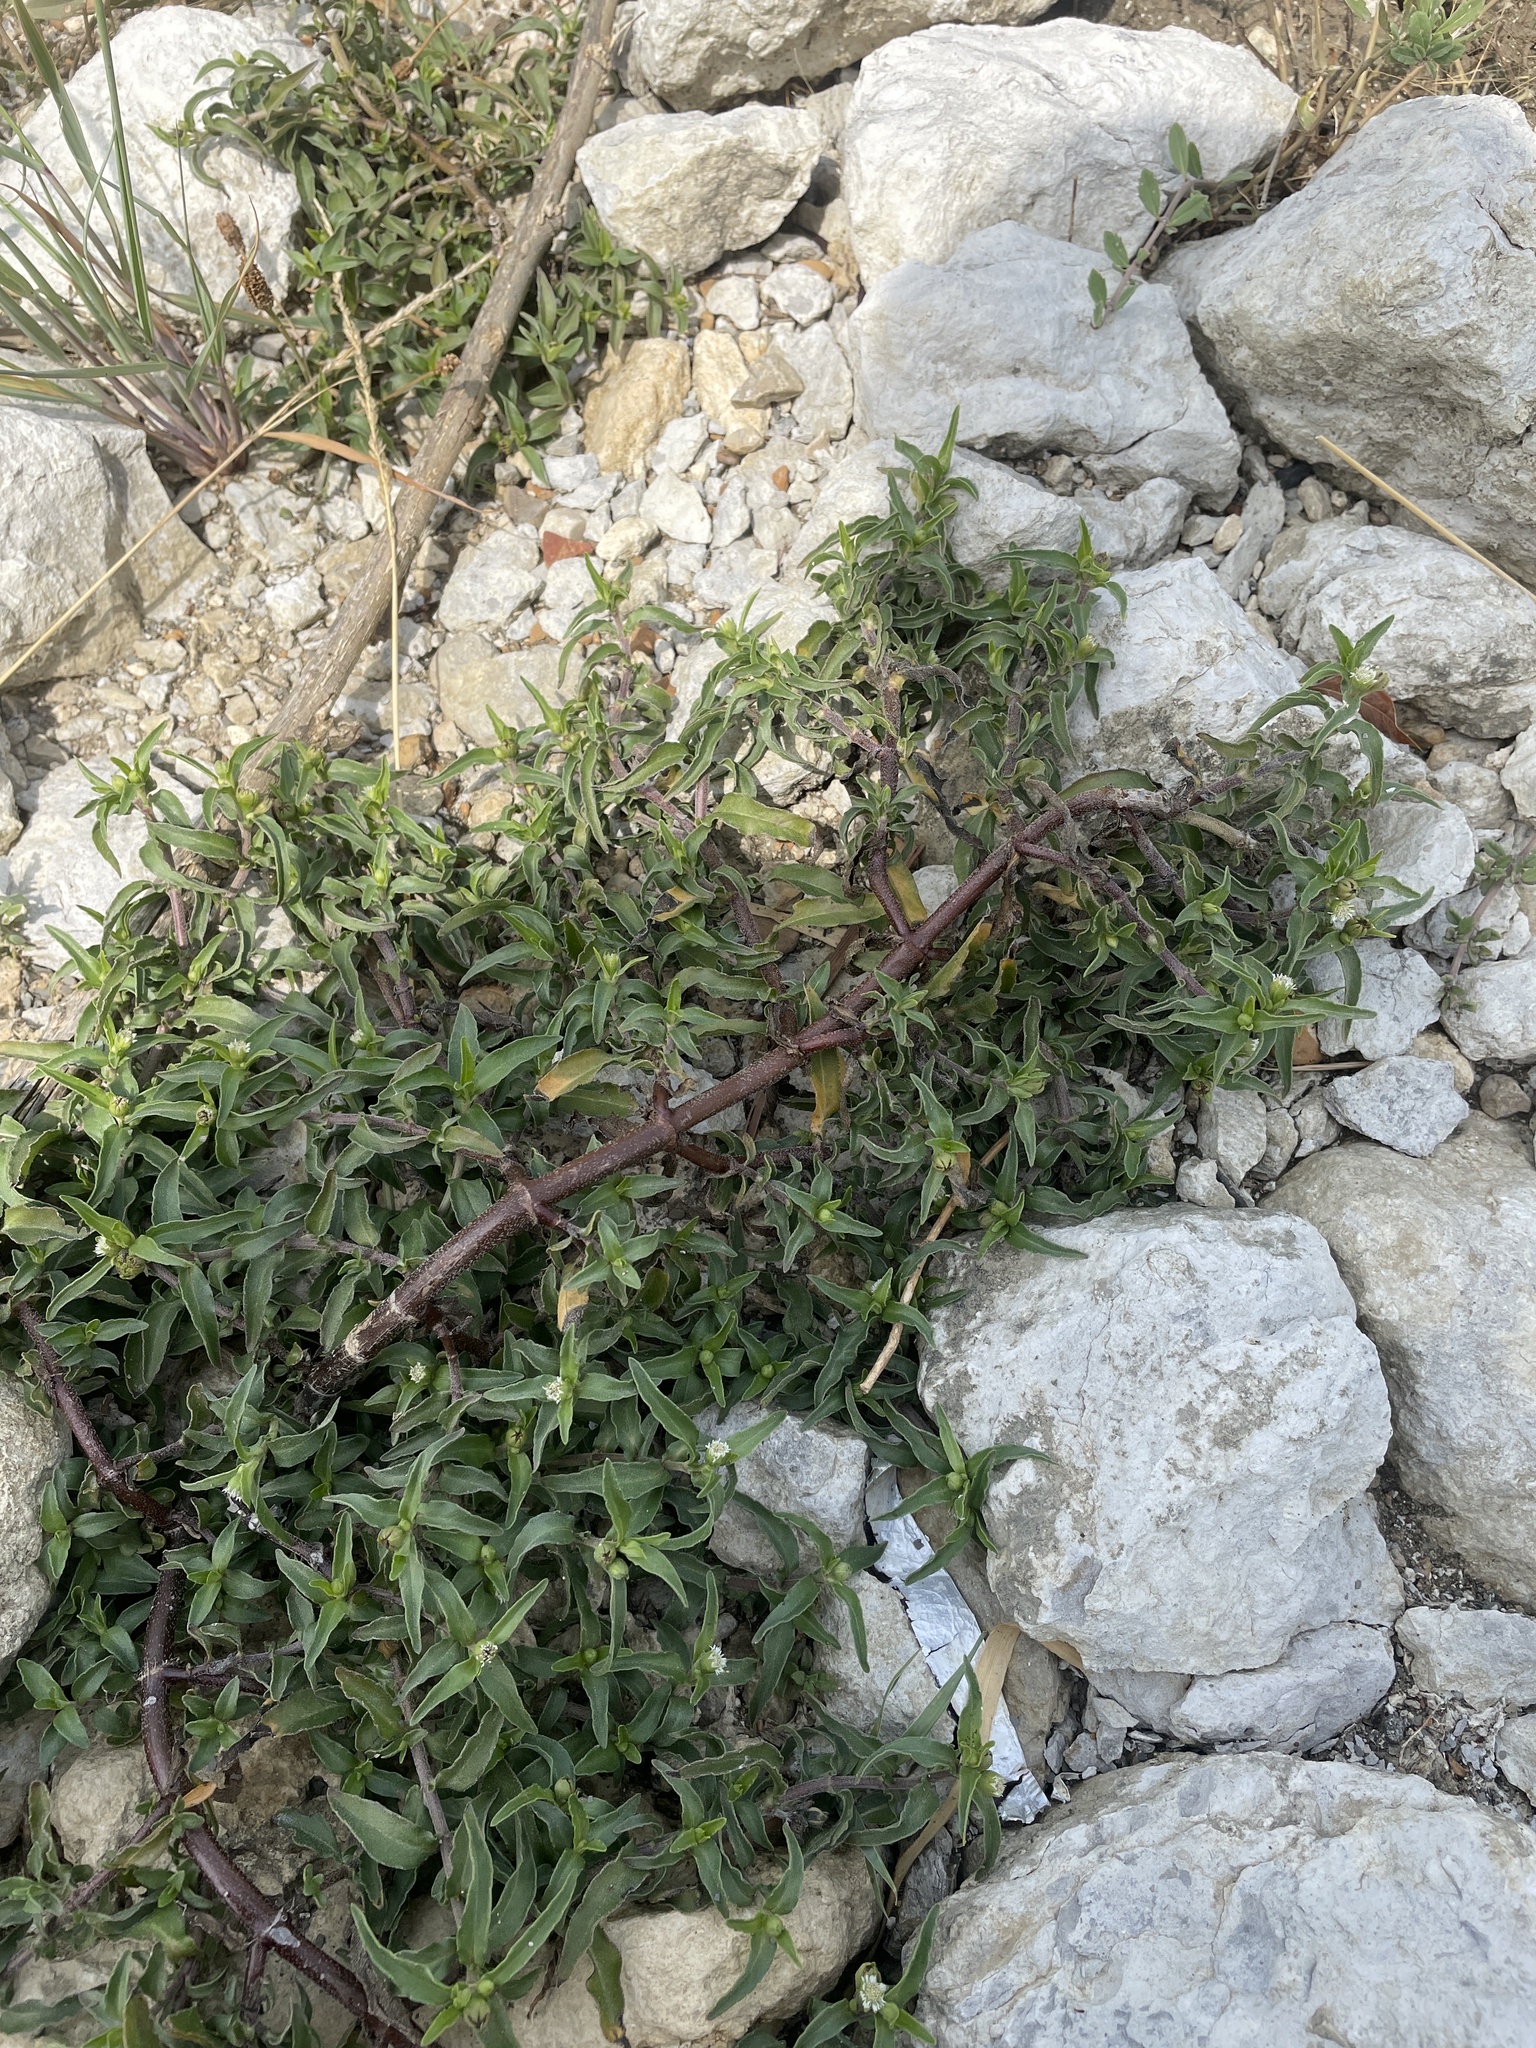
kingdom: Plantae
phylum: Tracheophyta
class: Magnoliopsida
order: Asterales
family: Asteraceae
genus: Eclipta
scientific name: Eclipta prostrata
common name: False daisy
